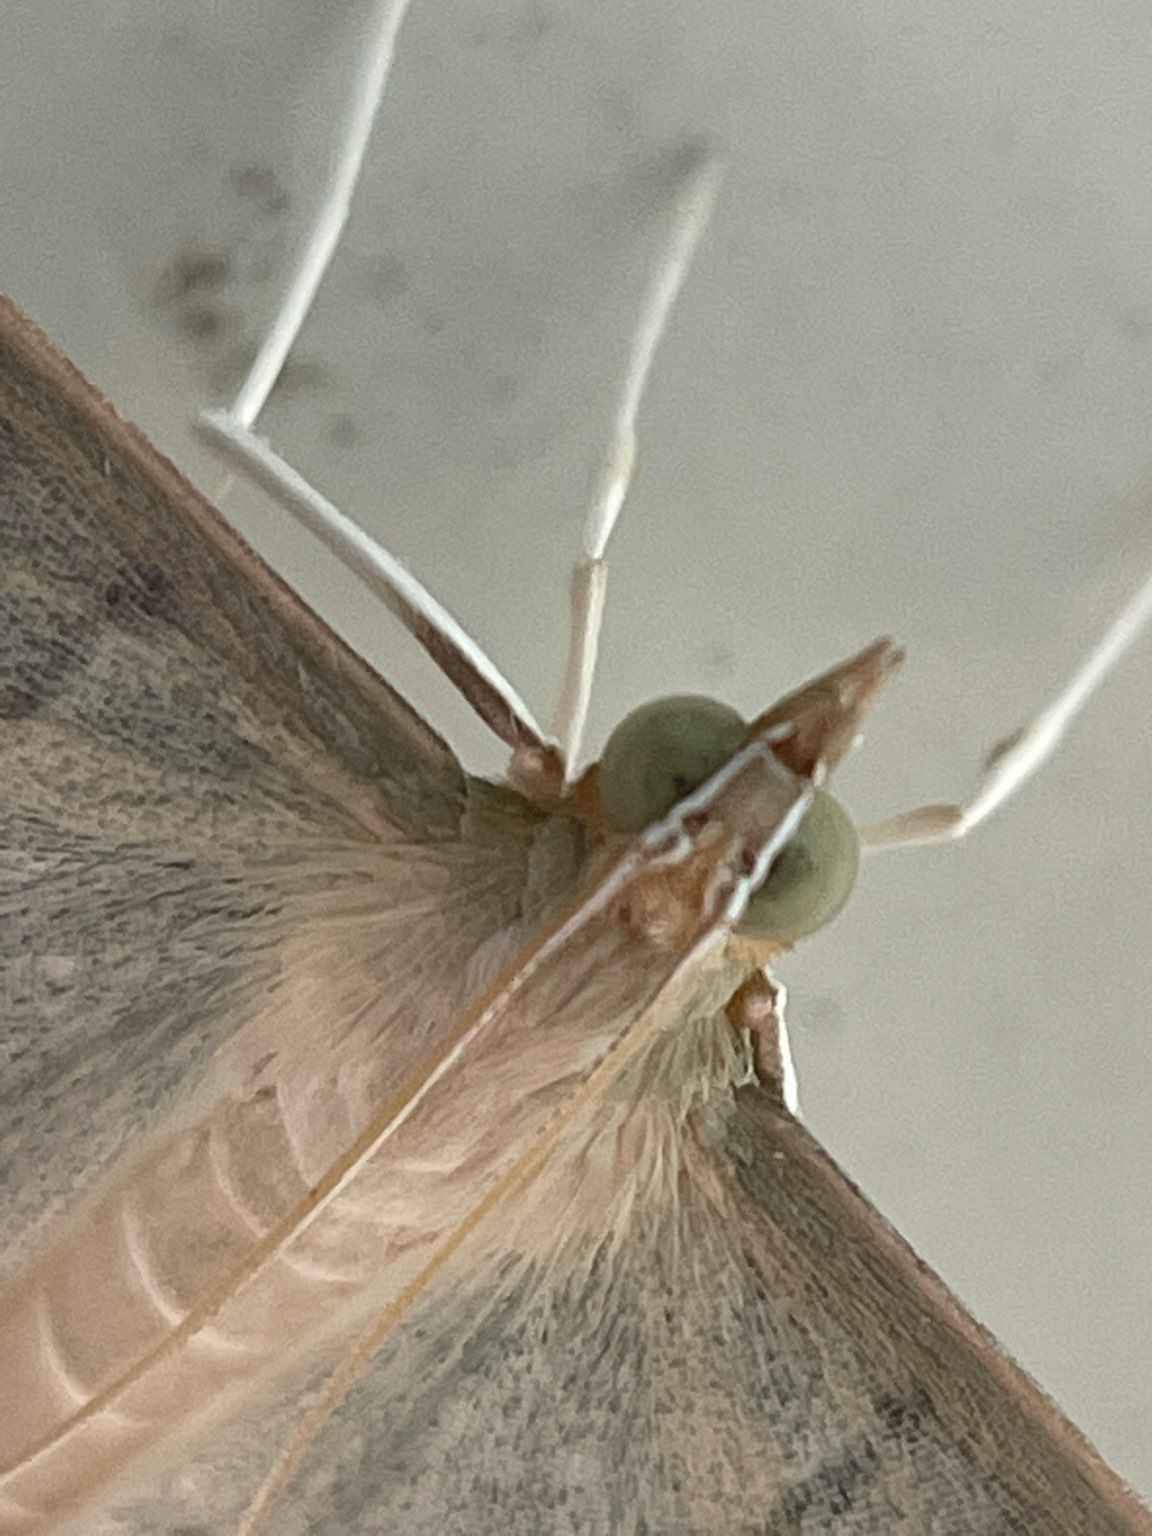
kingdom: Animalia
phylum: Arthropoda
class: Insecta
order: Lepidoptera
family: Crambidae
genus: Lamprophaia
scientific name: Lamprophaia ablactalis
